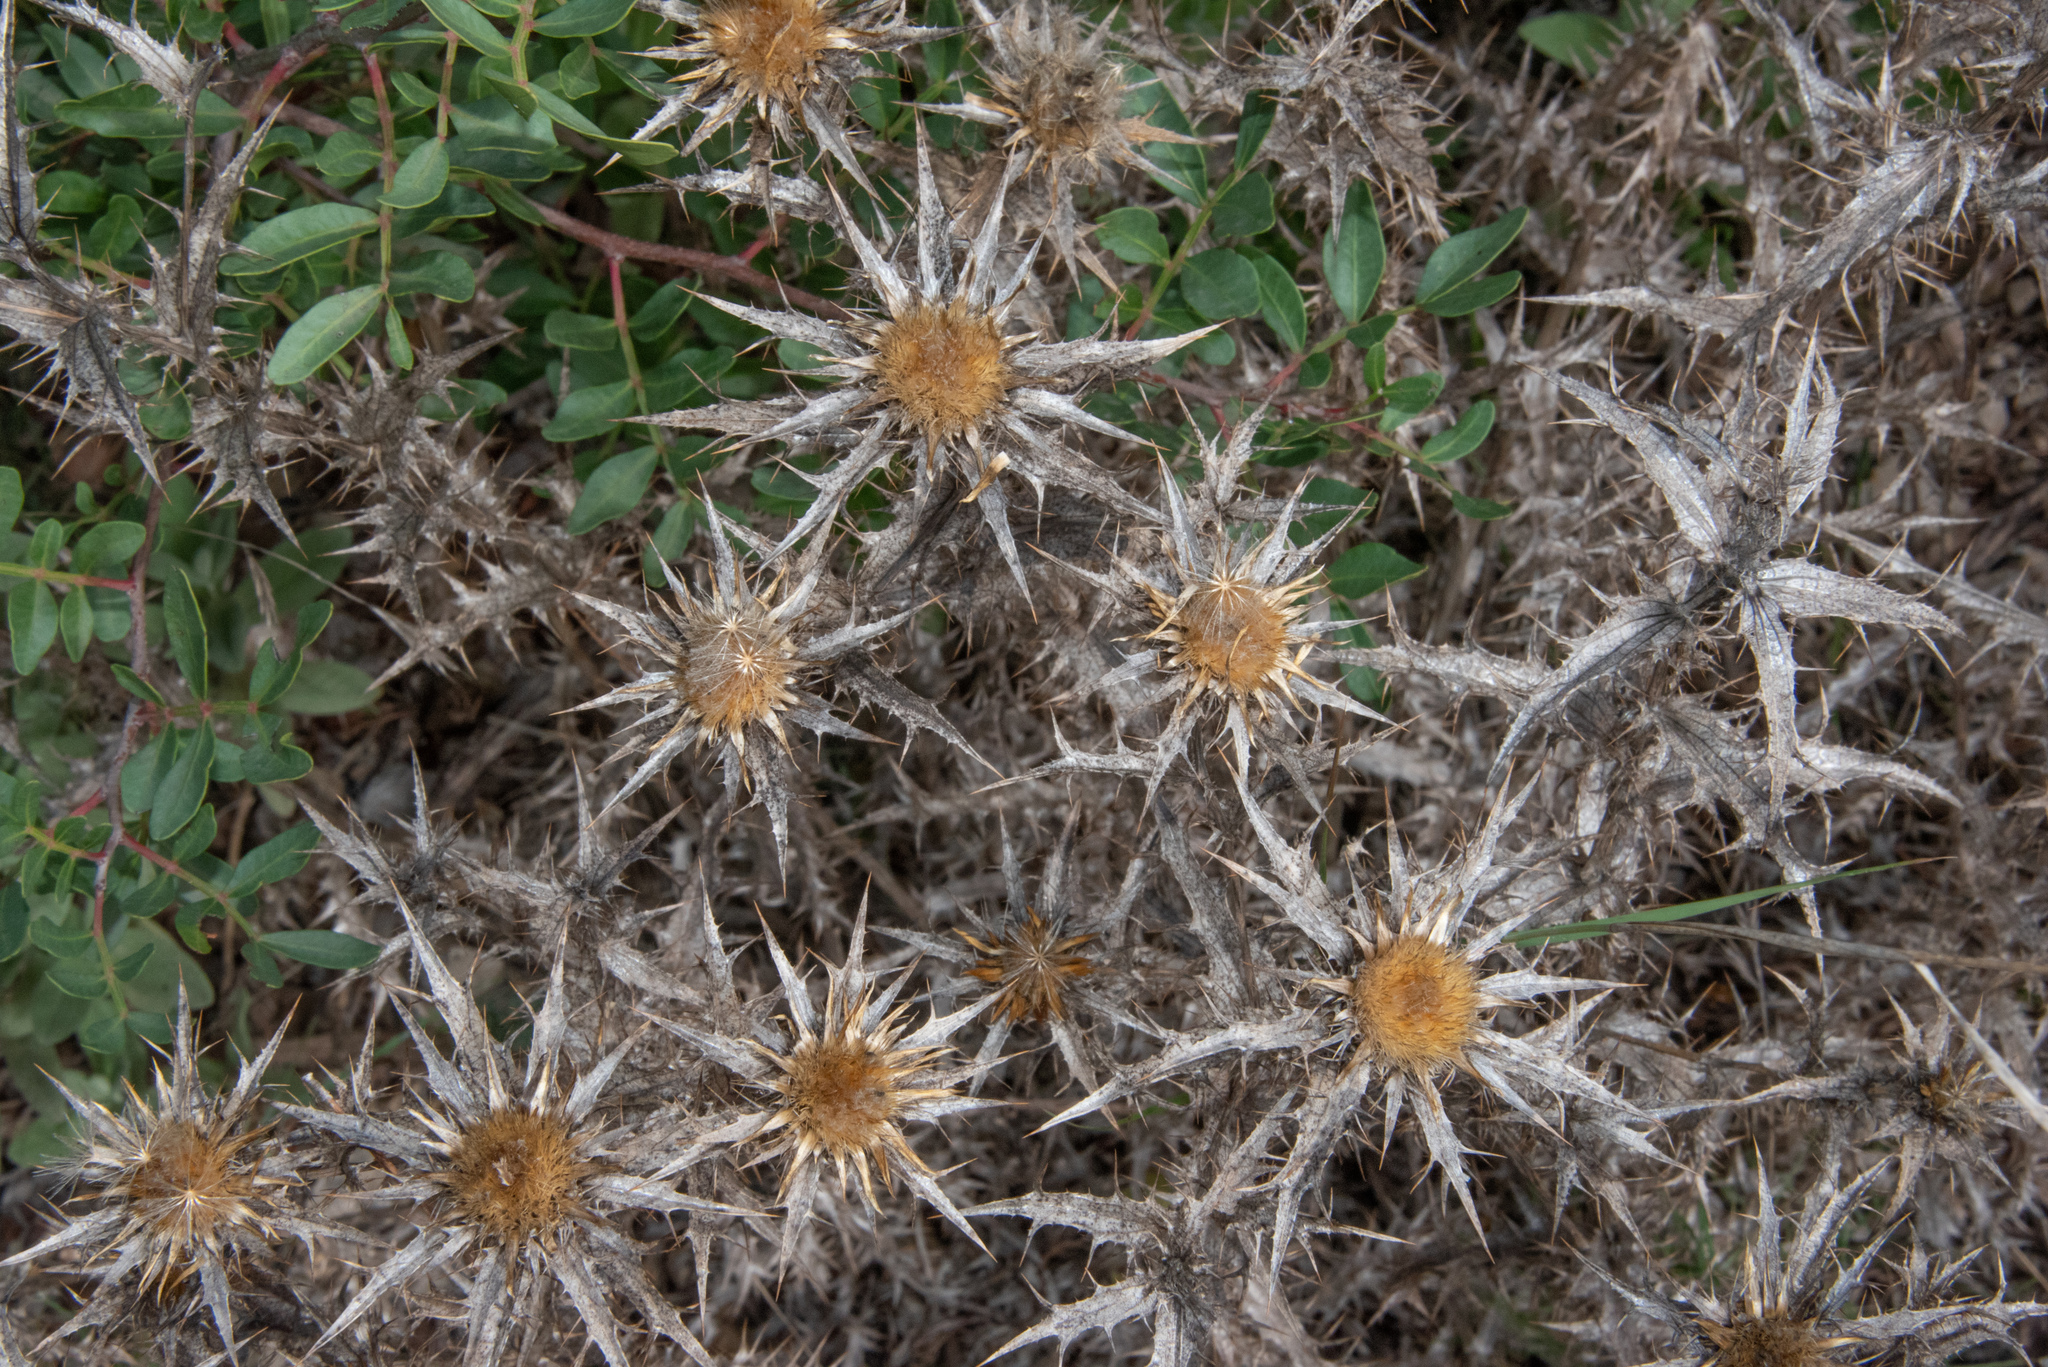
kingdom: Plantae
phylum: Tracheophyta
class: Magnoliopsida
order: Asterales
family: Asteraceae
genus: Carlina
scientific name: Carlina corymbosa
